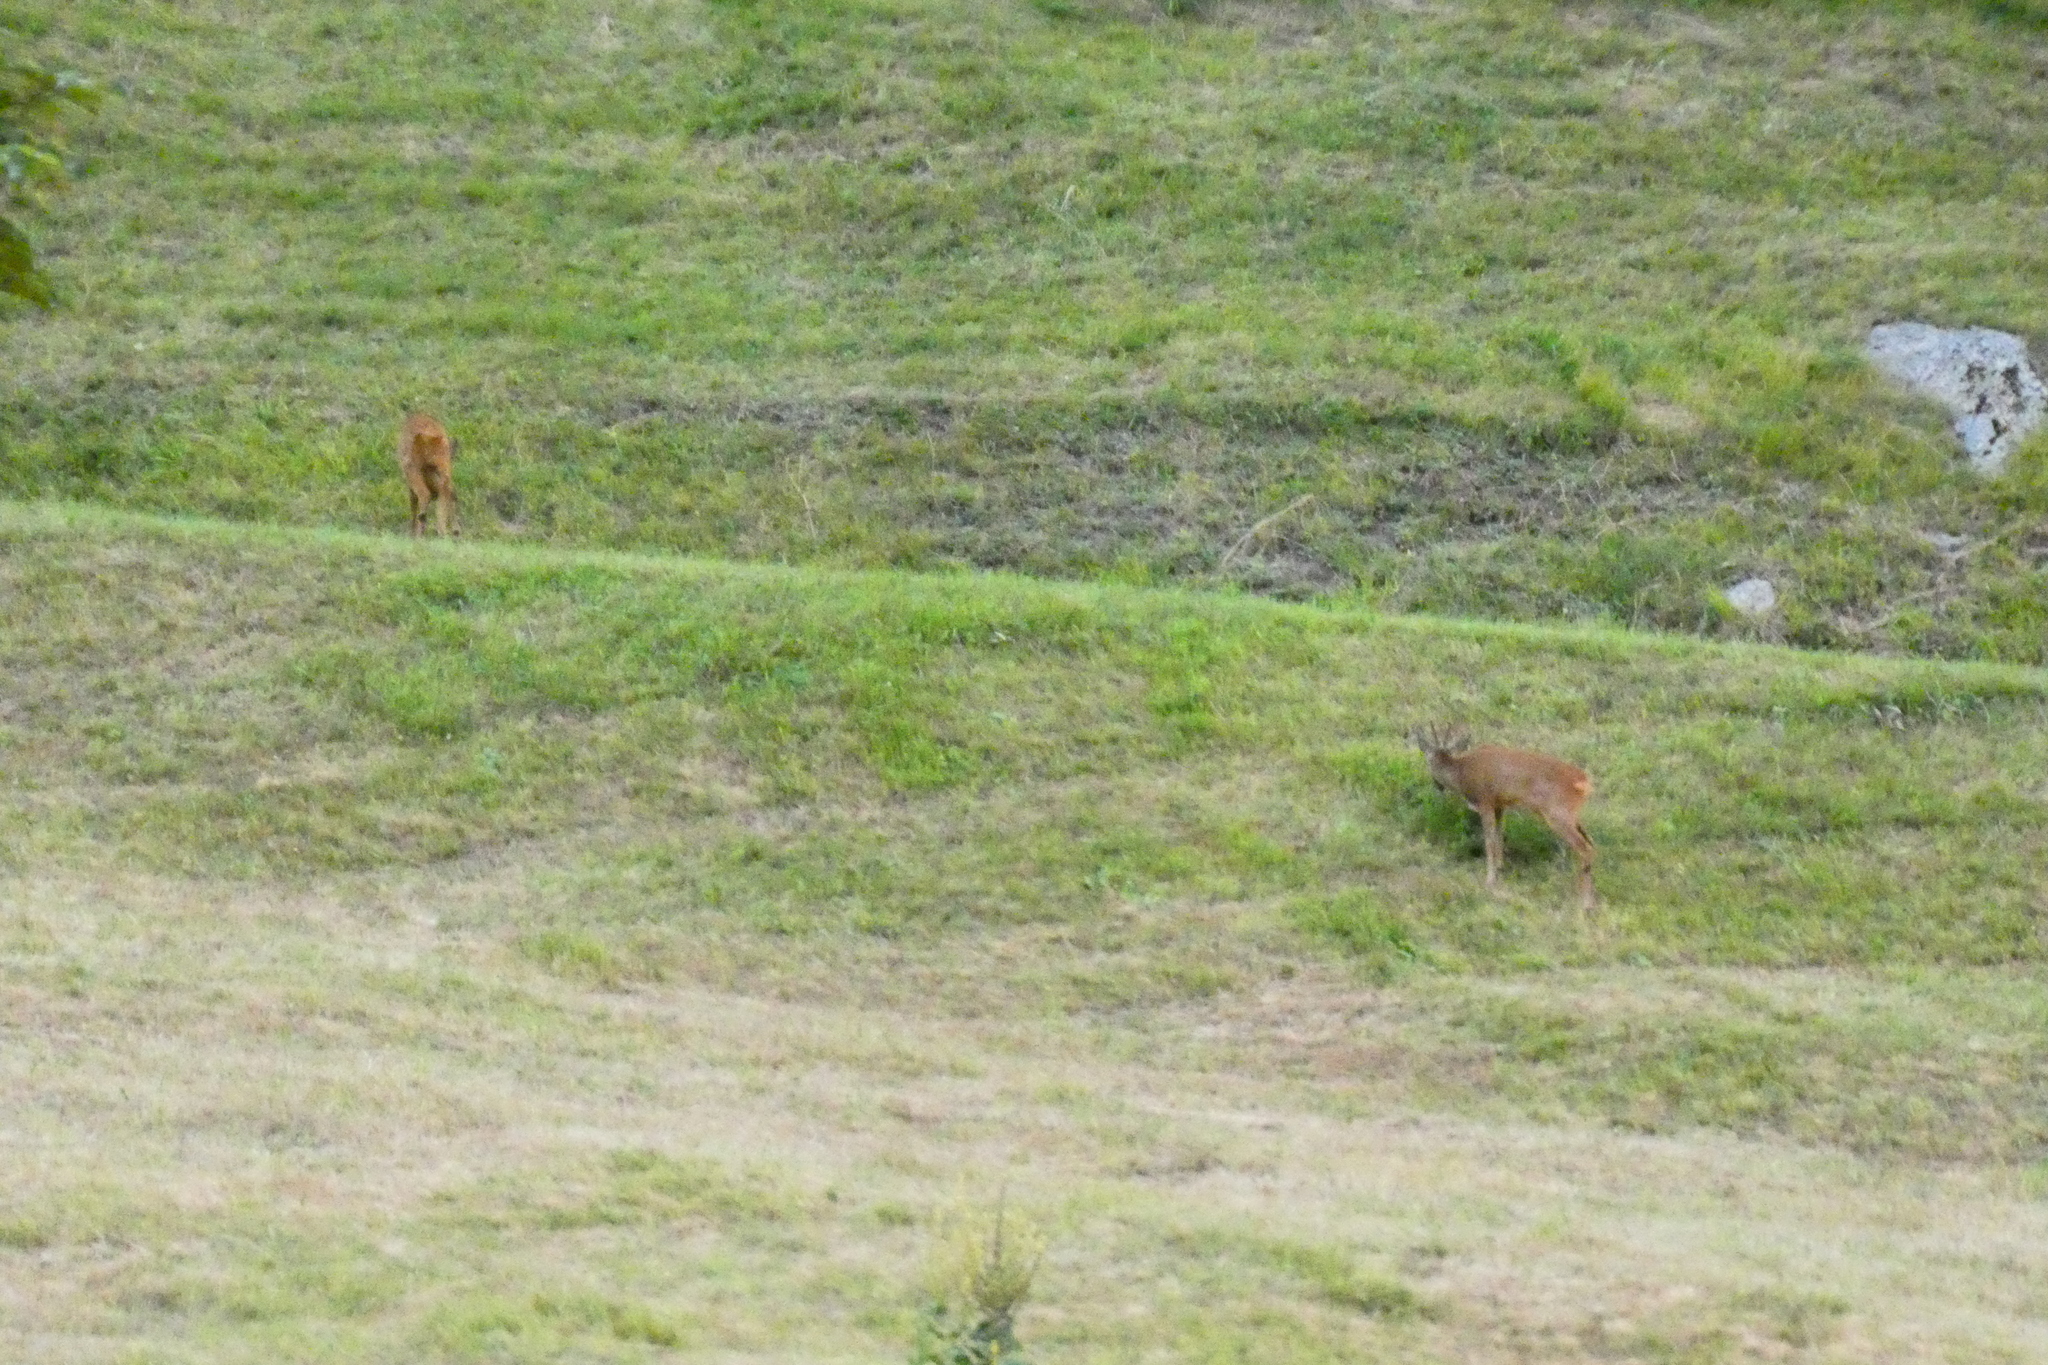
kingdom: Animalia
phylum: Chordata
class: Mammalia
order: Artiodactyla
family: Cervidae
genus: Capreolus
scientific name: Capreolus capreolus
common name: Western roe deer
